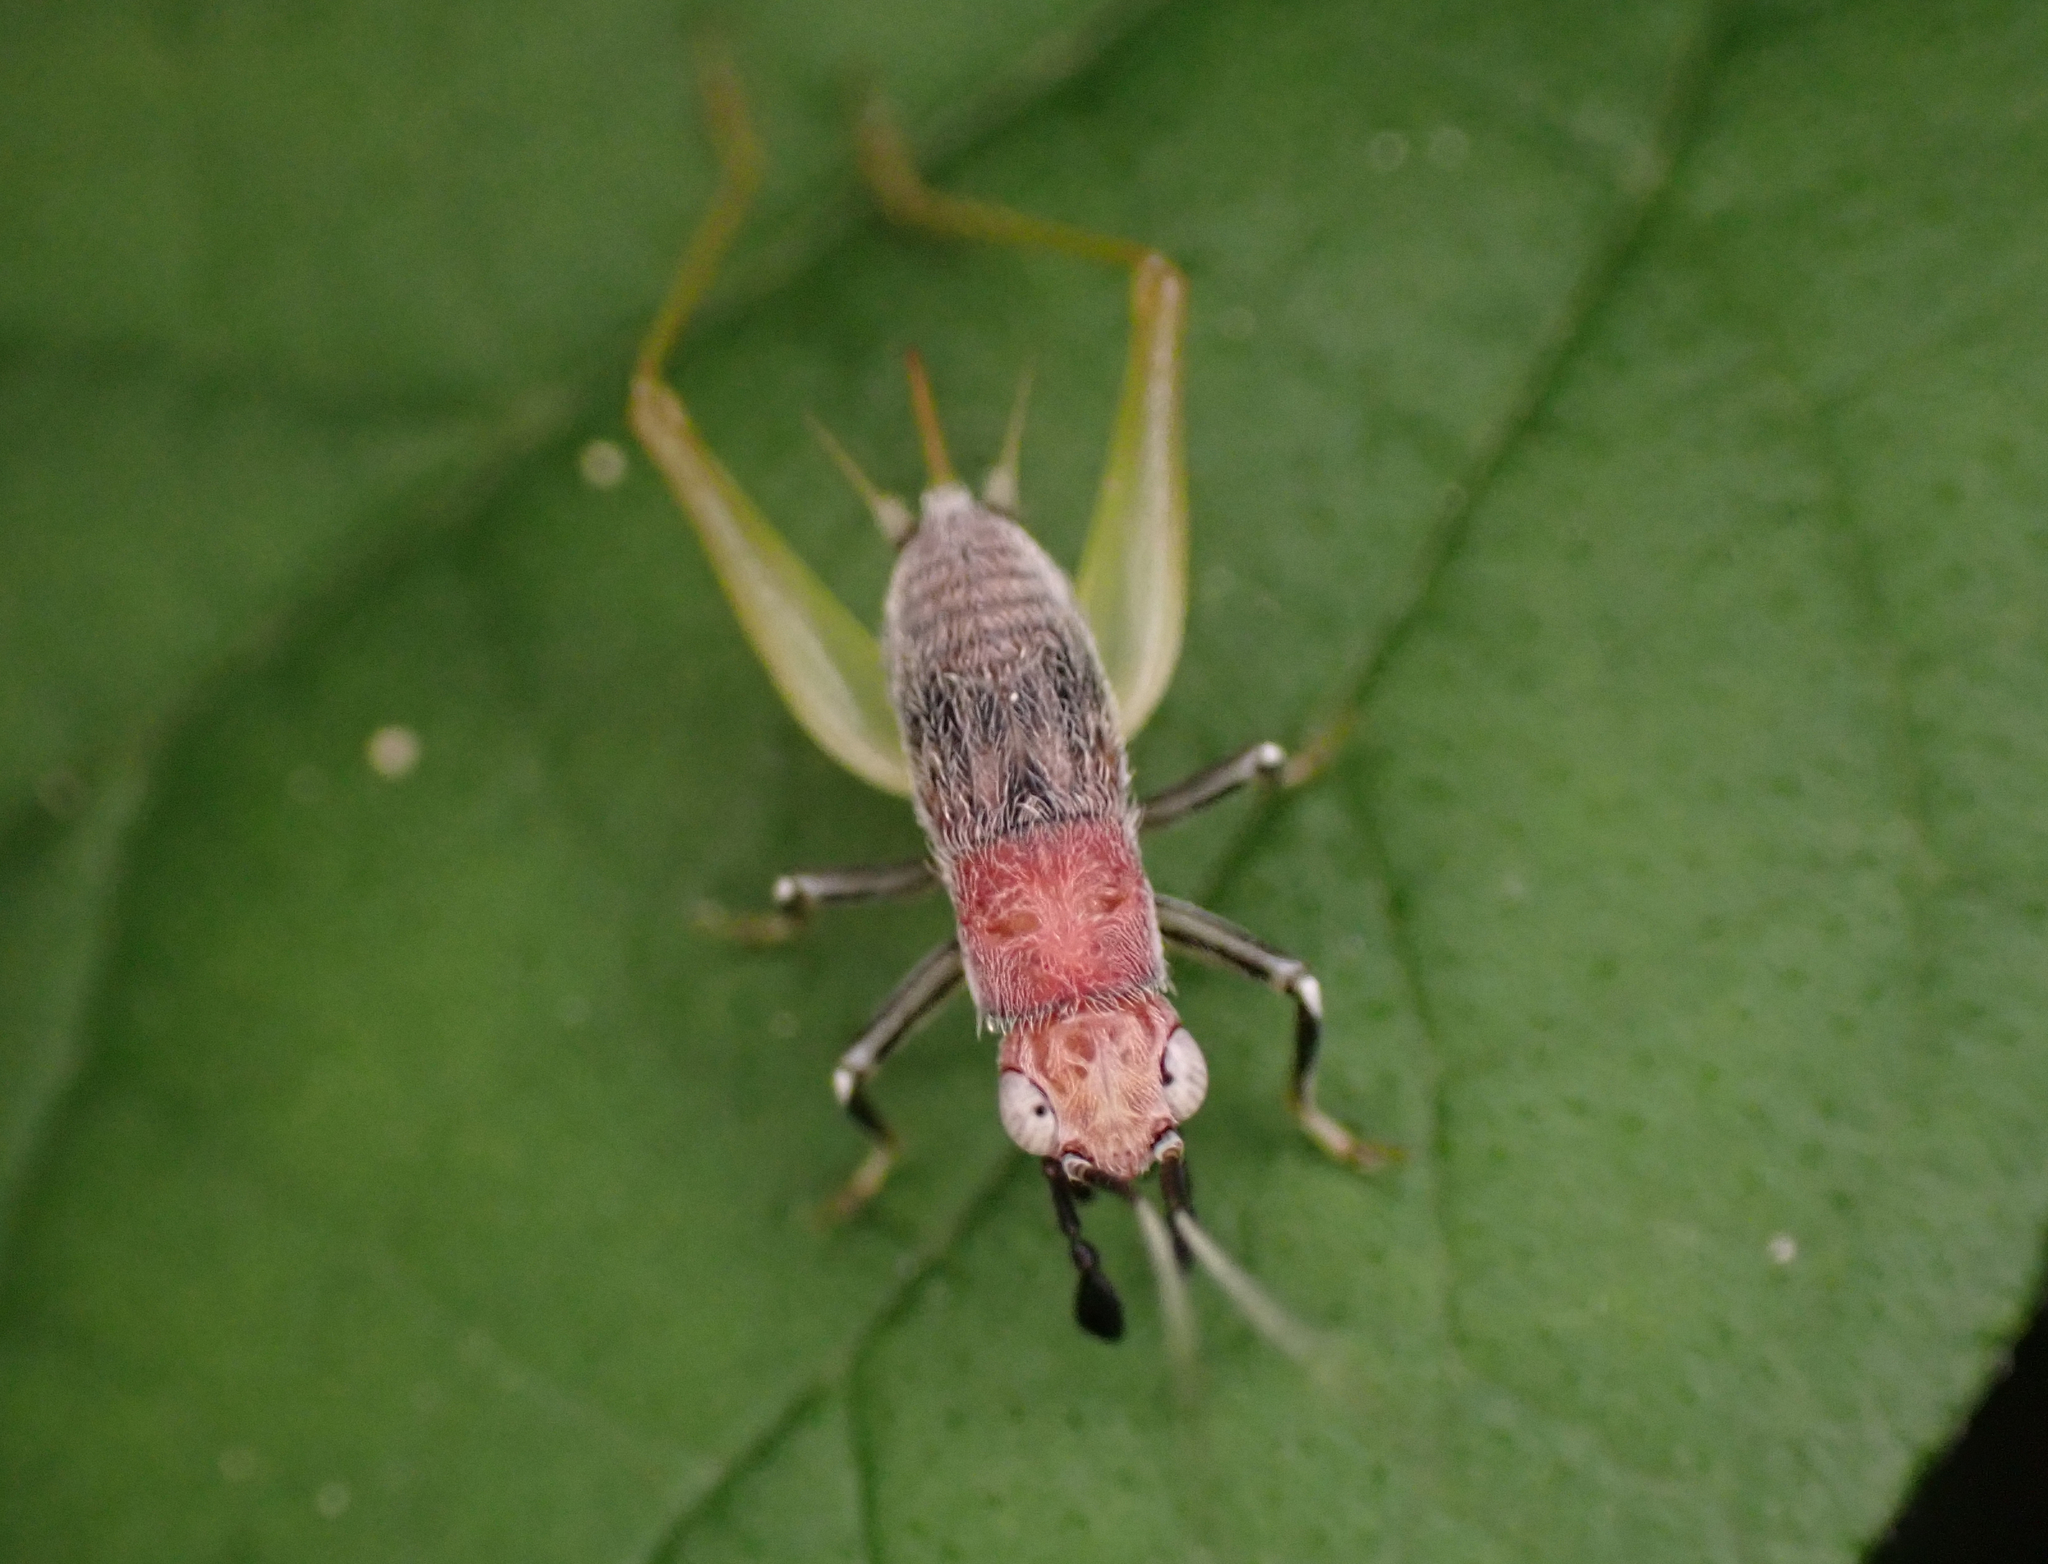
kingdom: Animalia
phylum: Arthropoda
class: Insecta
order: Orthoptera
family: Trigonidiidae
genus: Phyllopalpus
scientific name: Phyllopalpus pulchellus
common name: Handsome trig
